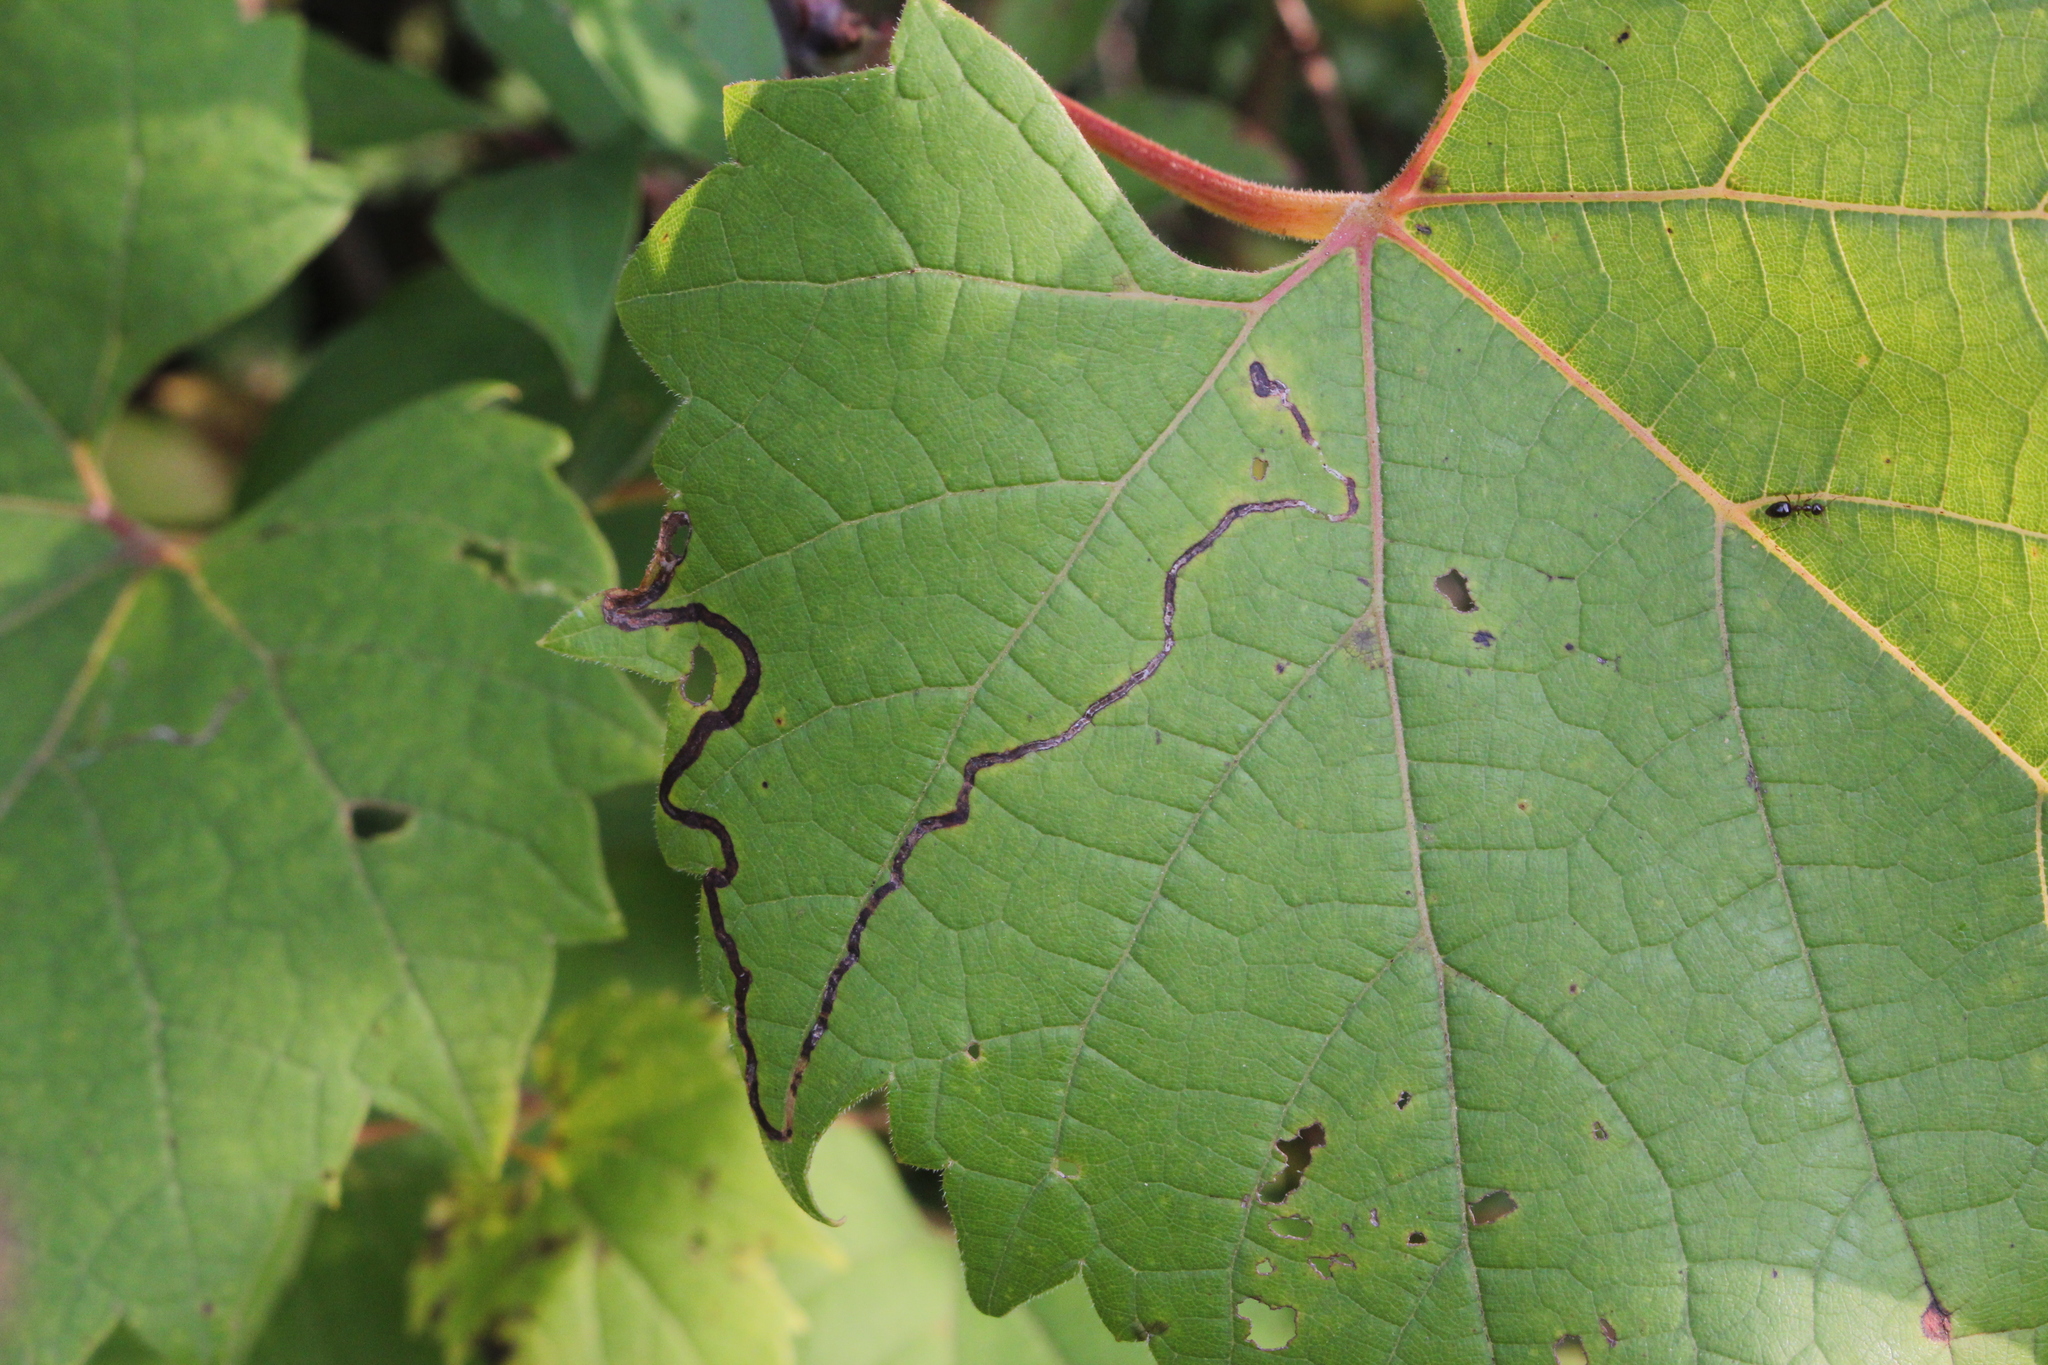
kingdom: Animalia
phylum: Arthropoda
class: Insecta
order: Lepidoptera
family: Gracillariidae
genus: Phyllocnistis
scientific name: Phyllocnistis vitifoliella
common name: Grape leaf-miner moth
